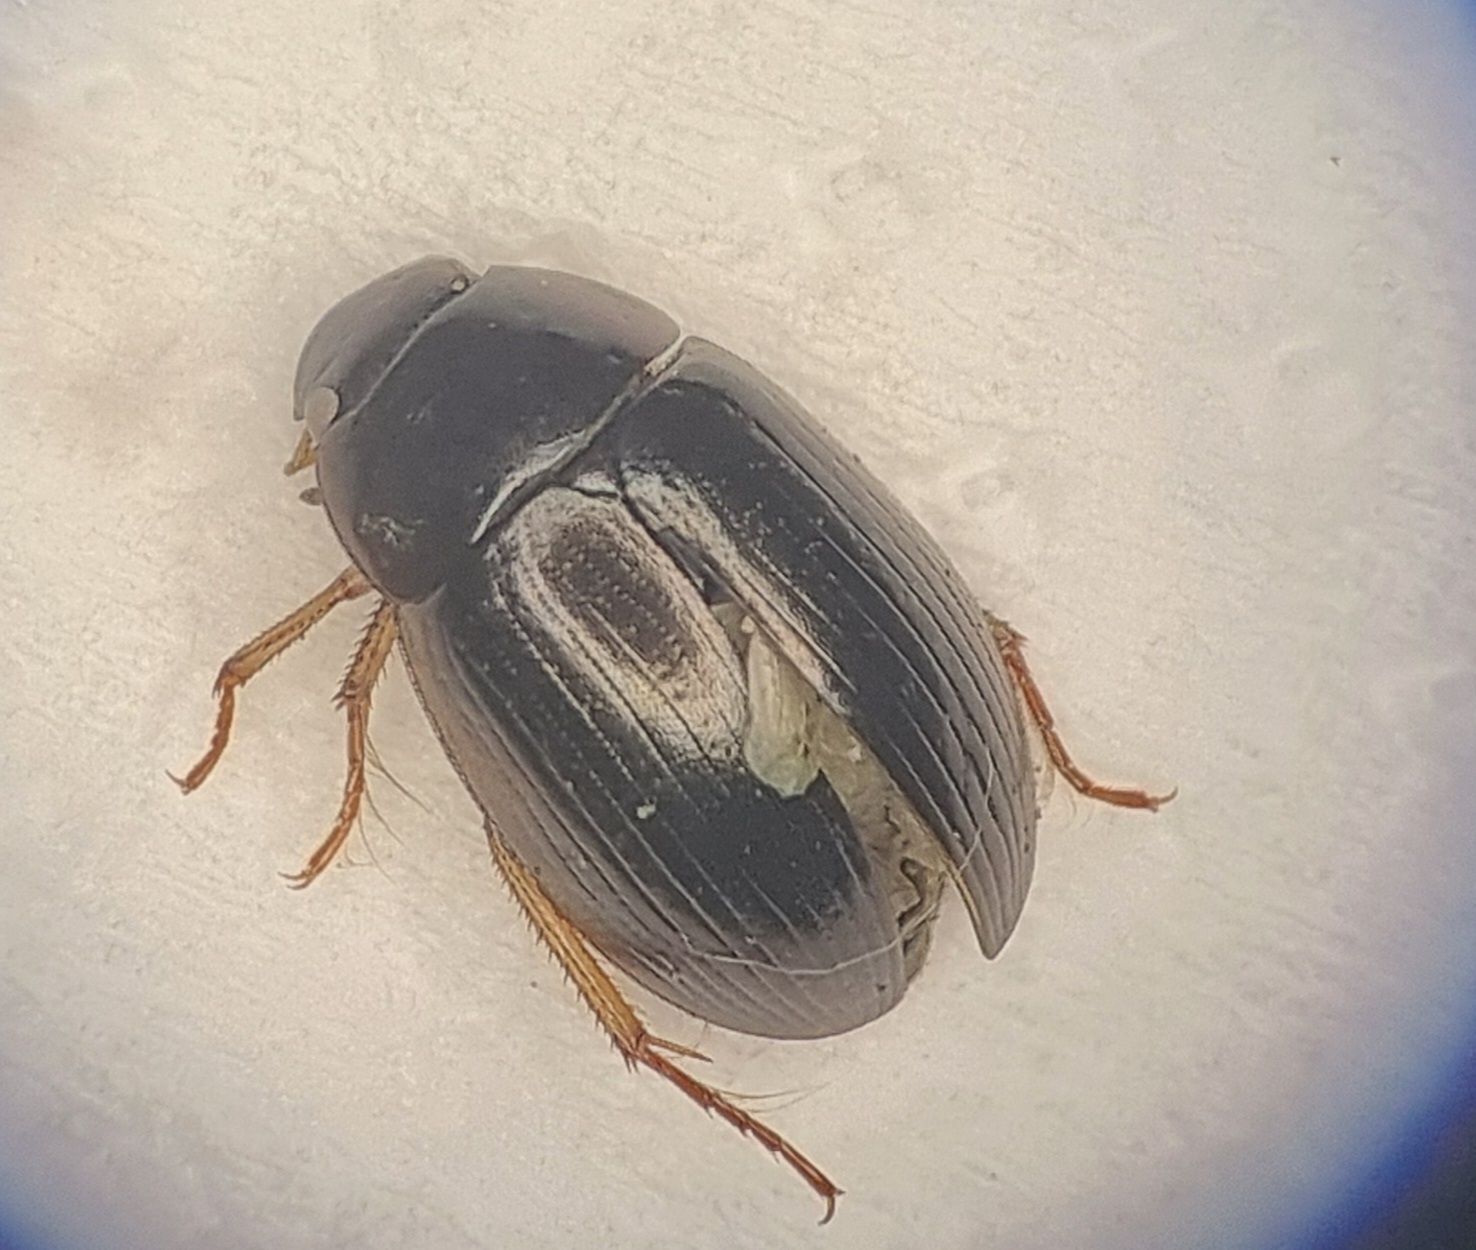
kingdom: Animalia
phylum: Arthropoda
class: Insecta
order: Coleoptera
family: Hydrophilidae
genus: Hydrobius
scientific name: Hydrobius
